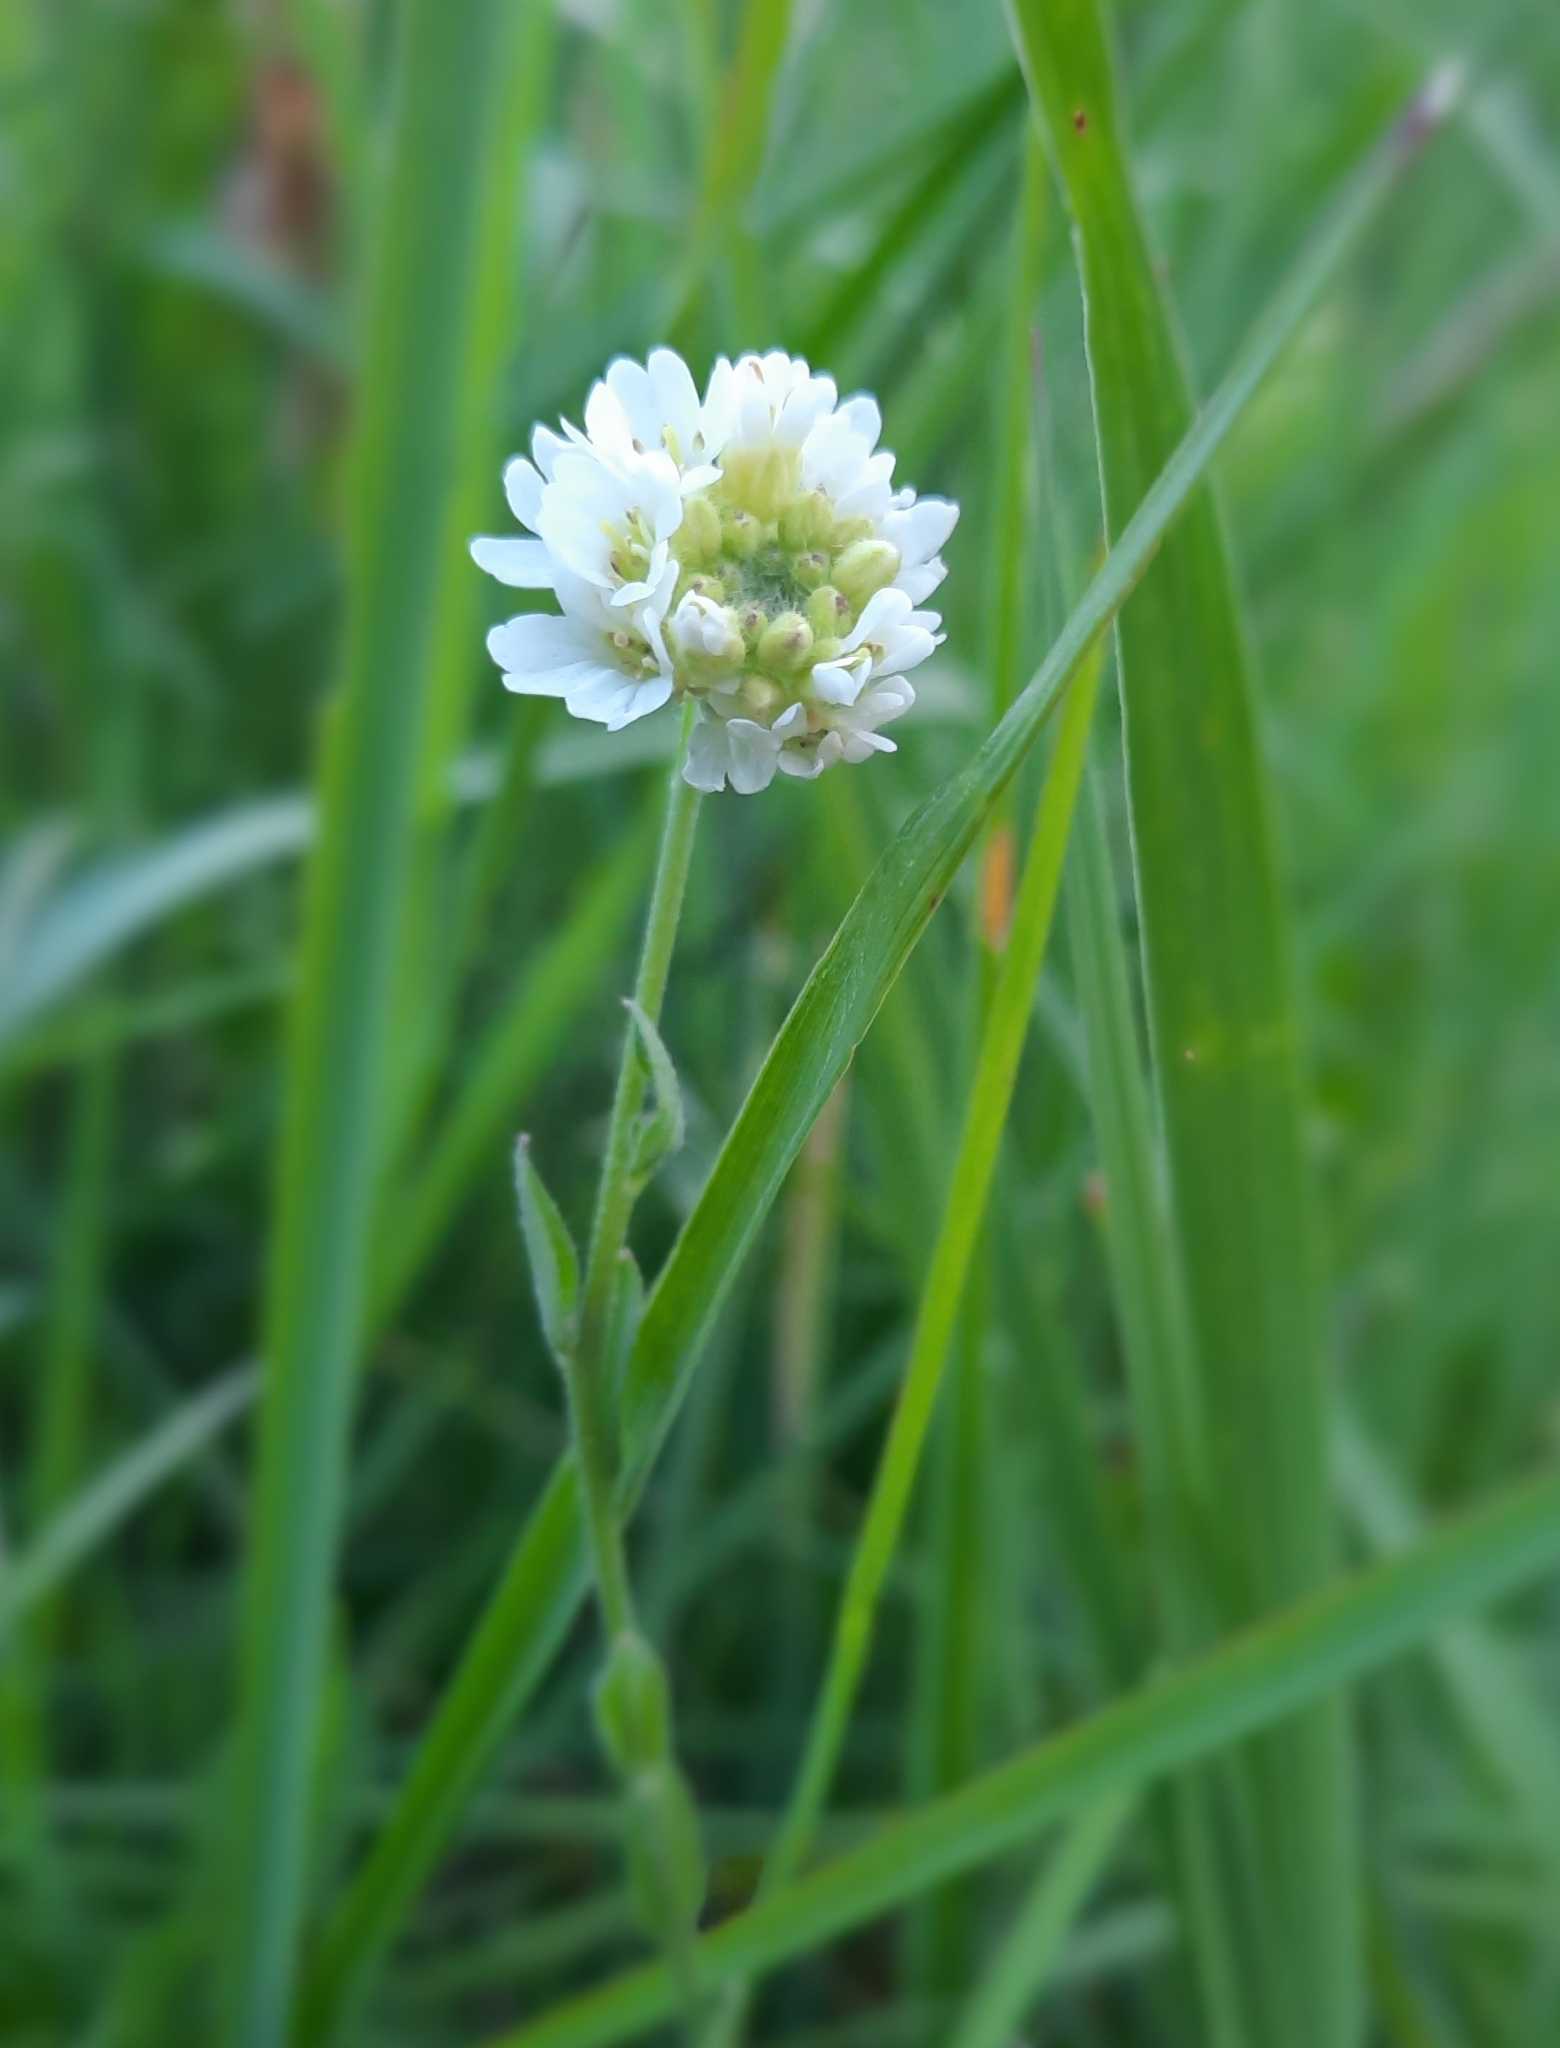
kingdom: Plantae
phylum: Tracheophyta
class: Magnoliopsida
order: Brassicales
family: Brassicaceae
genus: Berteroa
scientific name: Berteroa incana
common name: Hoary alison
